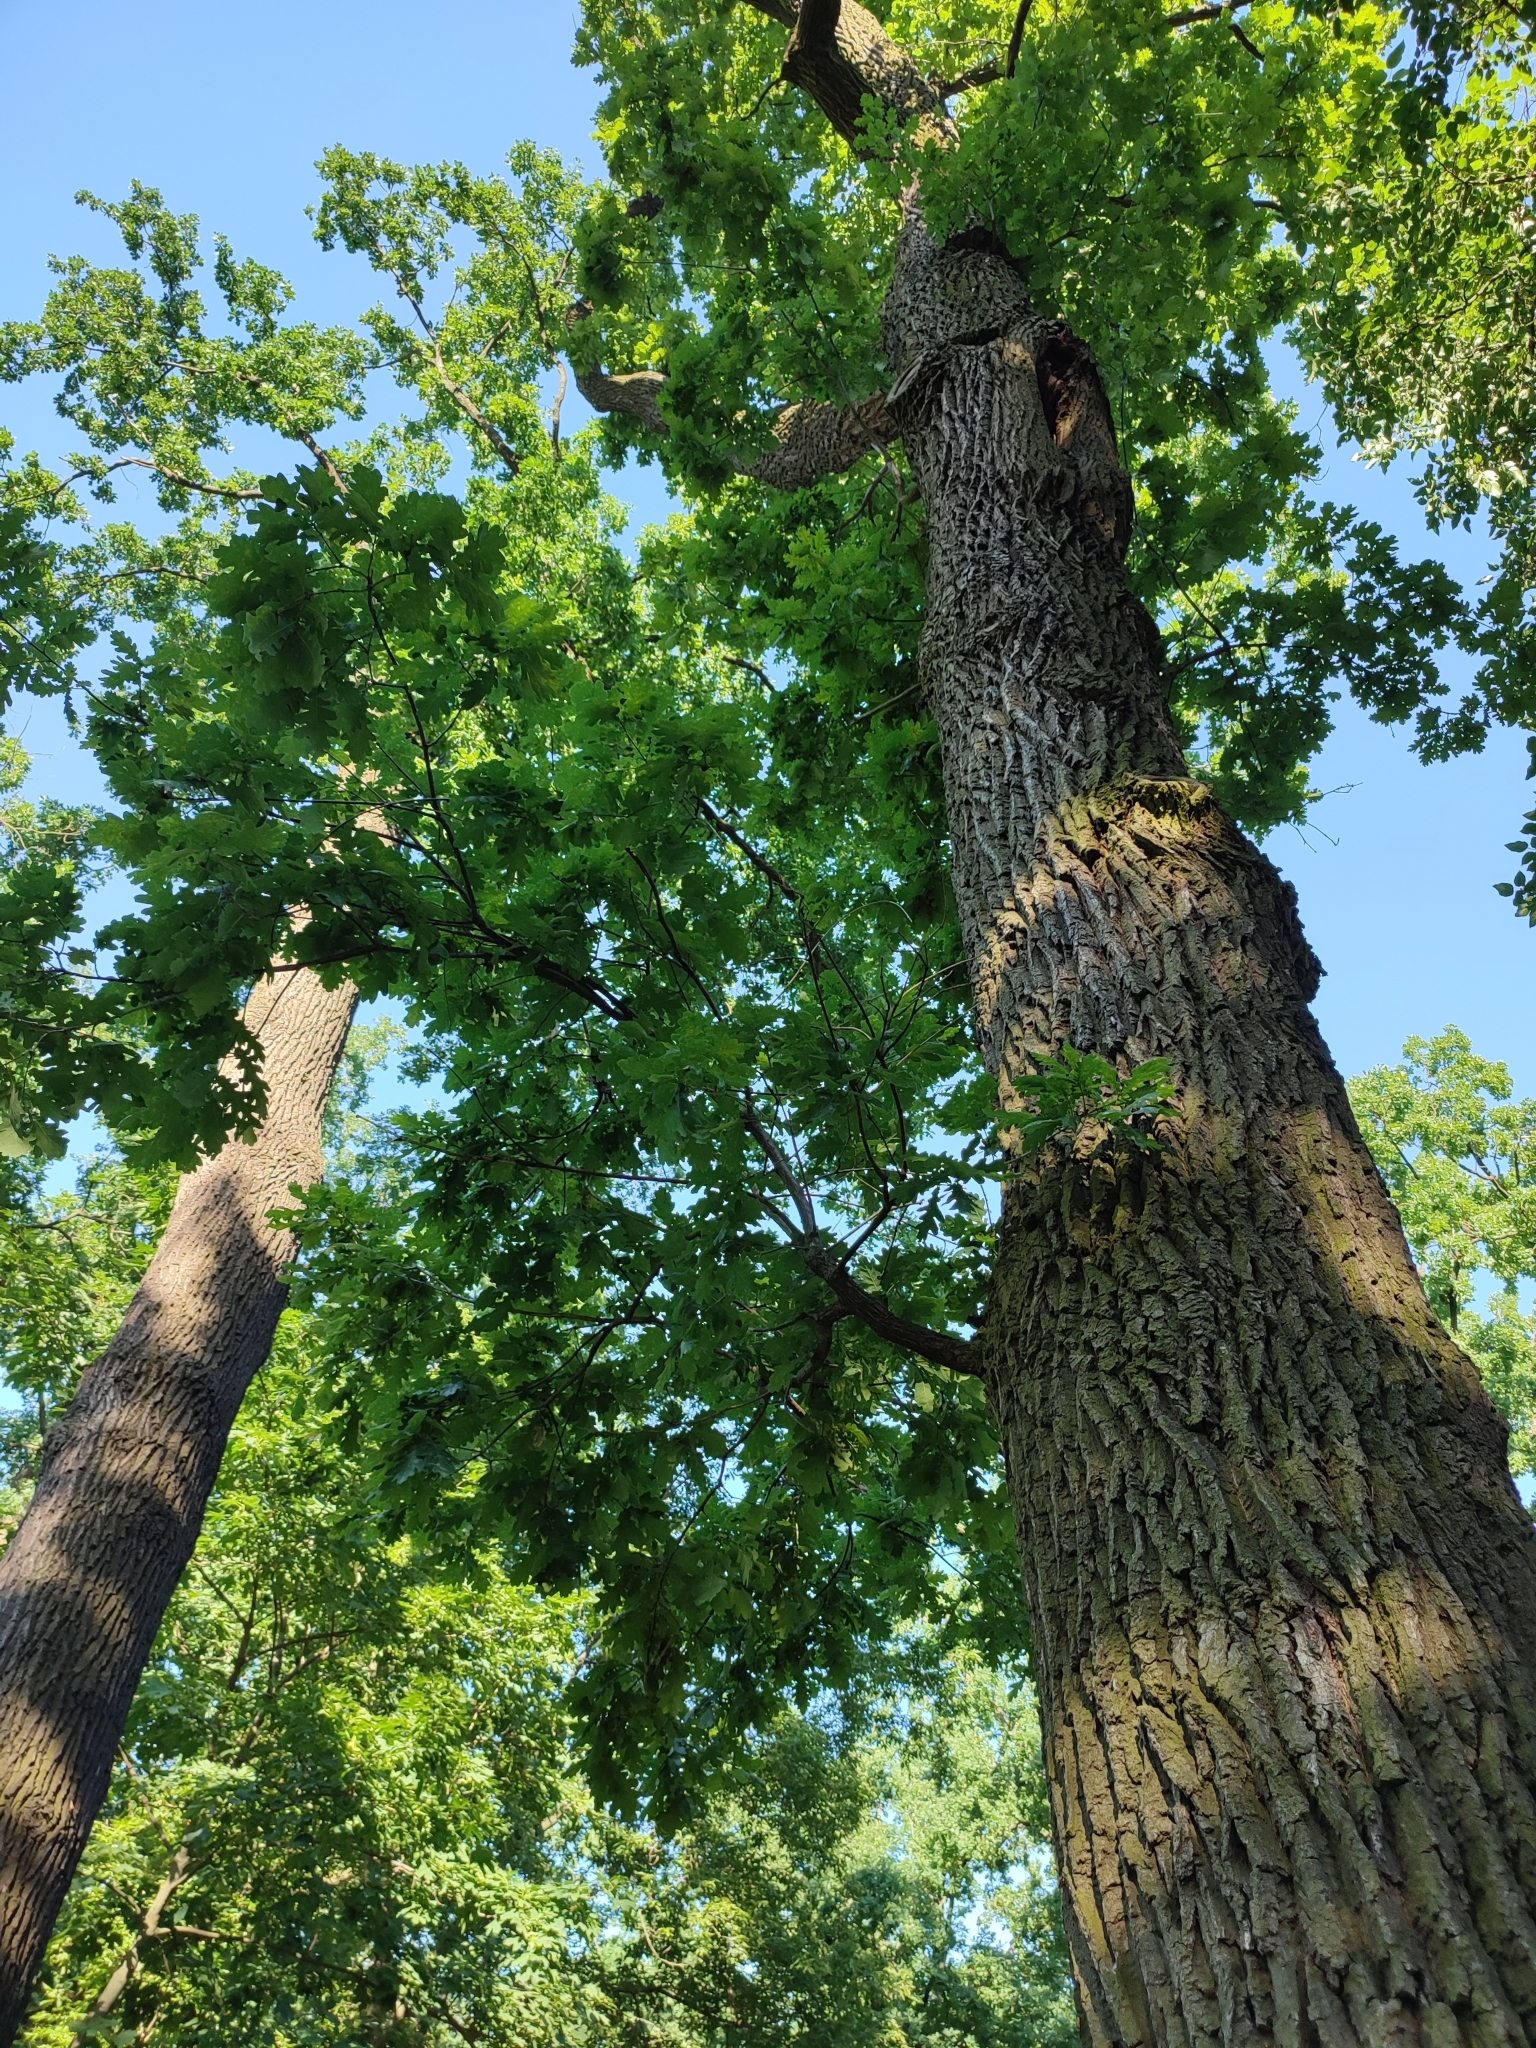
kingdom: Plantae
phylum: Tracheophyta
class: Magnoliopsida
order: Fagales
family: Fagaceae
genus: Quercus
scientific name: Quercus robur
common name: Pedunculate oak
